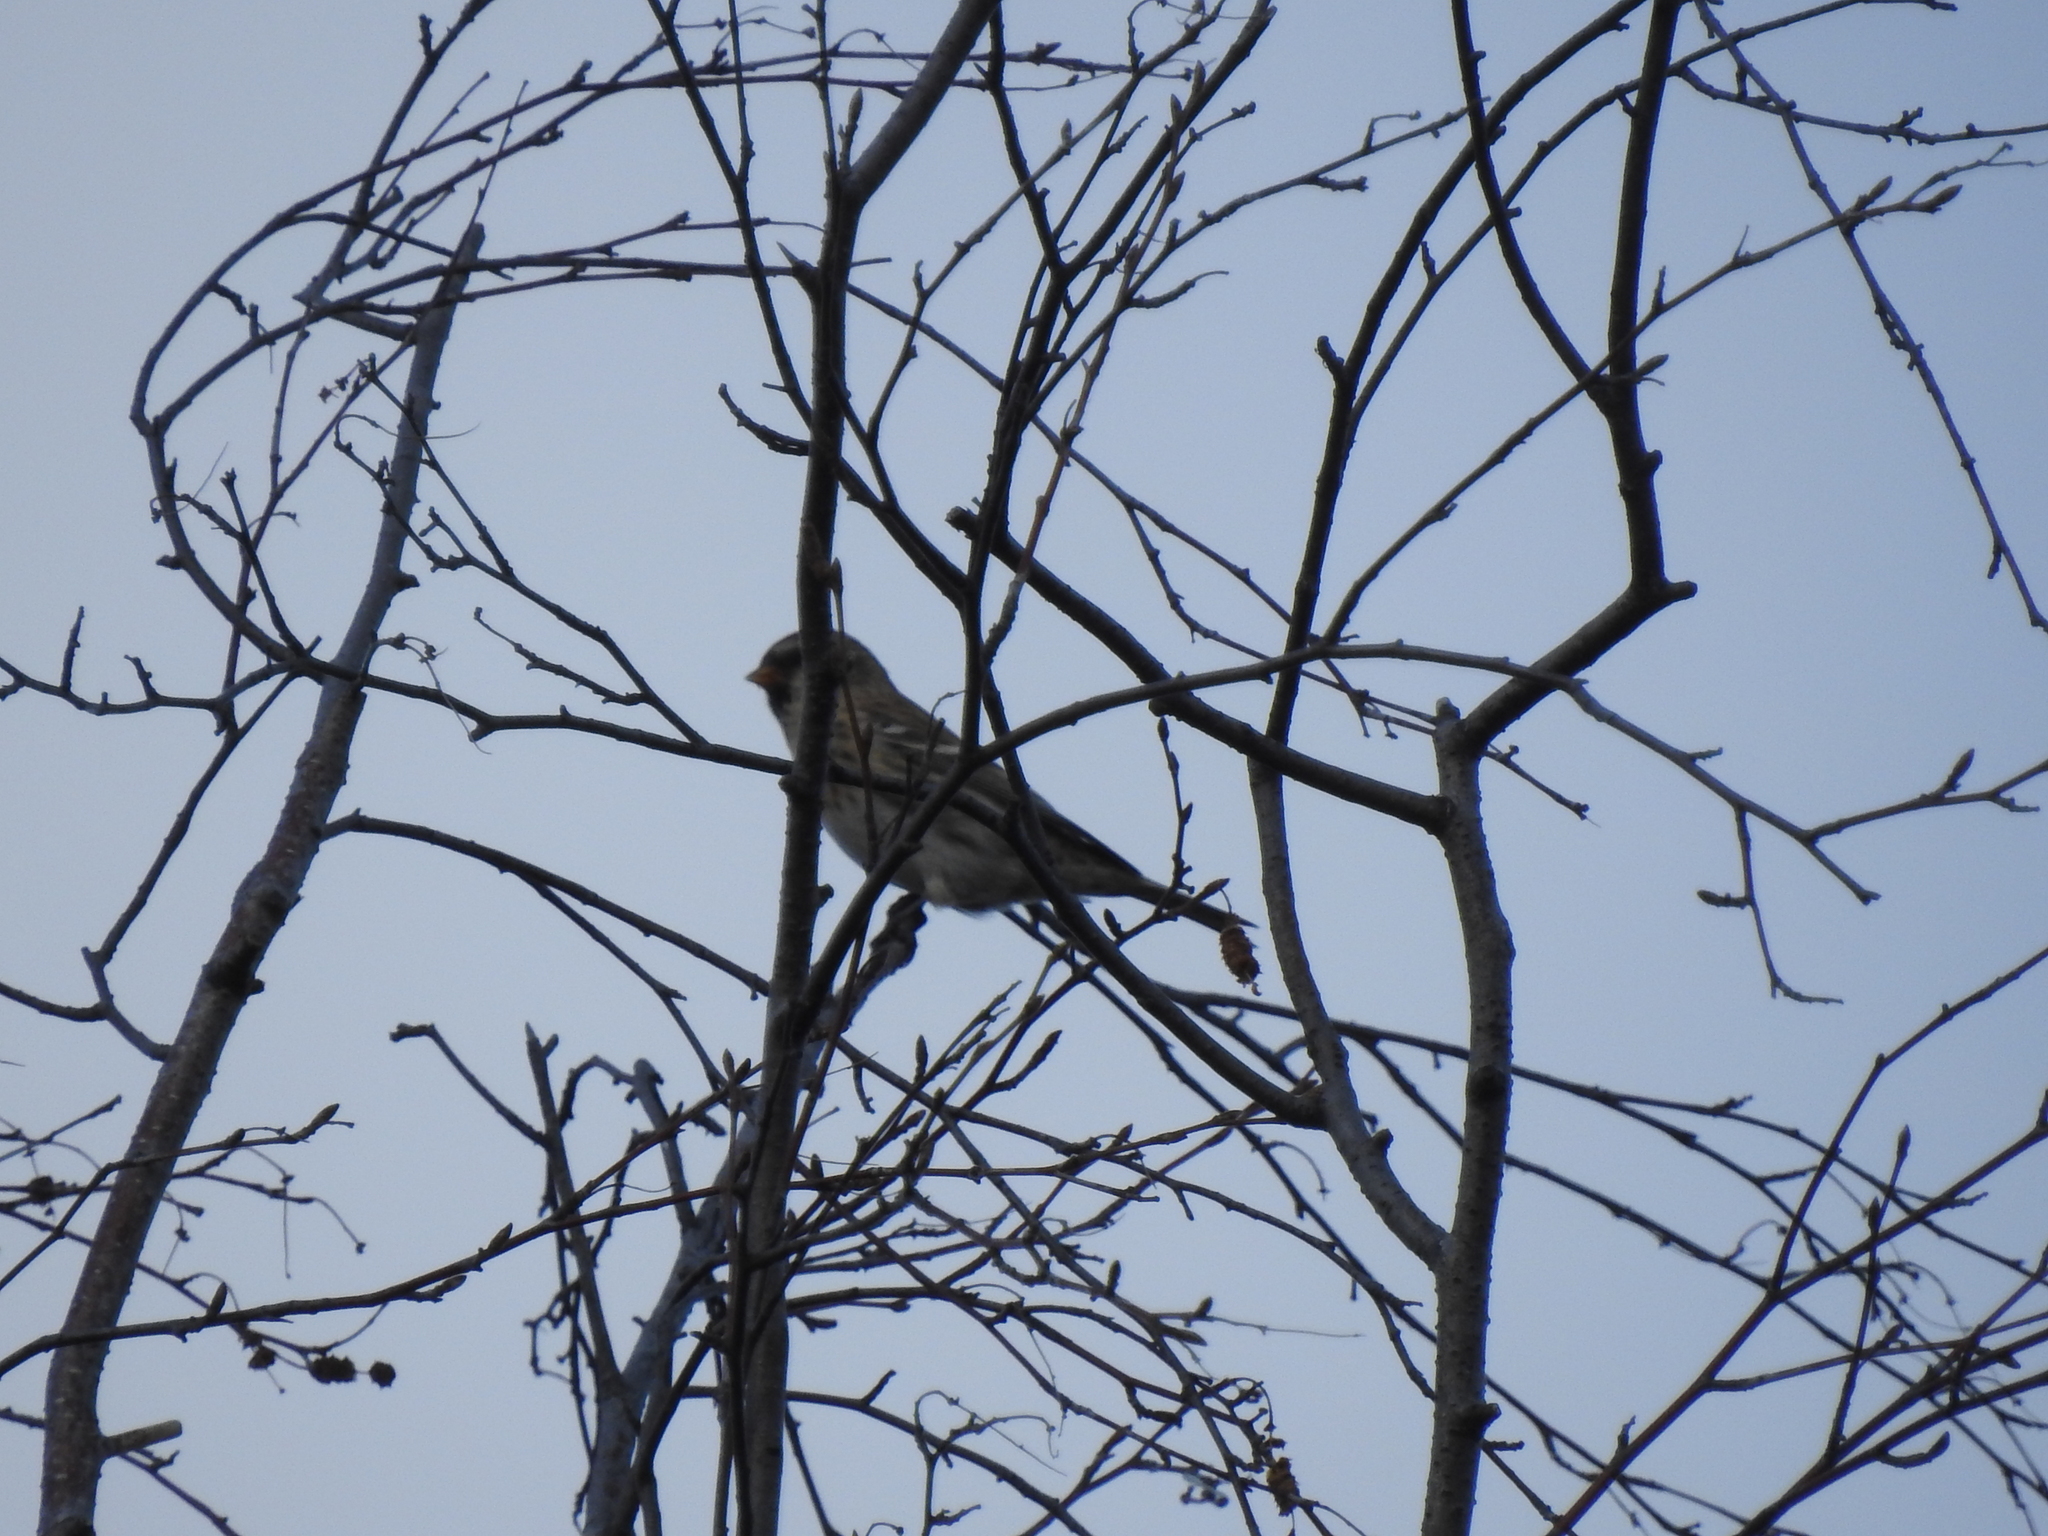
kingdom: Animalia
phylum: Chordata
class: Aves
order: Passeriformes
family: Fringillidae
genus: Acanthis
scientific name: Acanthis flammea
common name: Common redpoll
